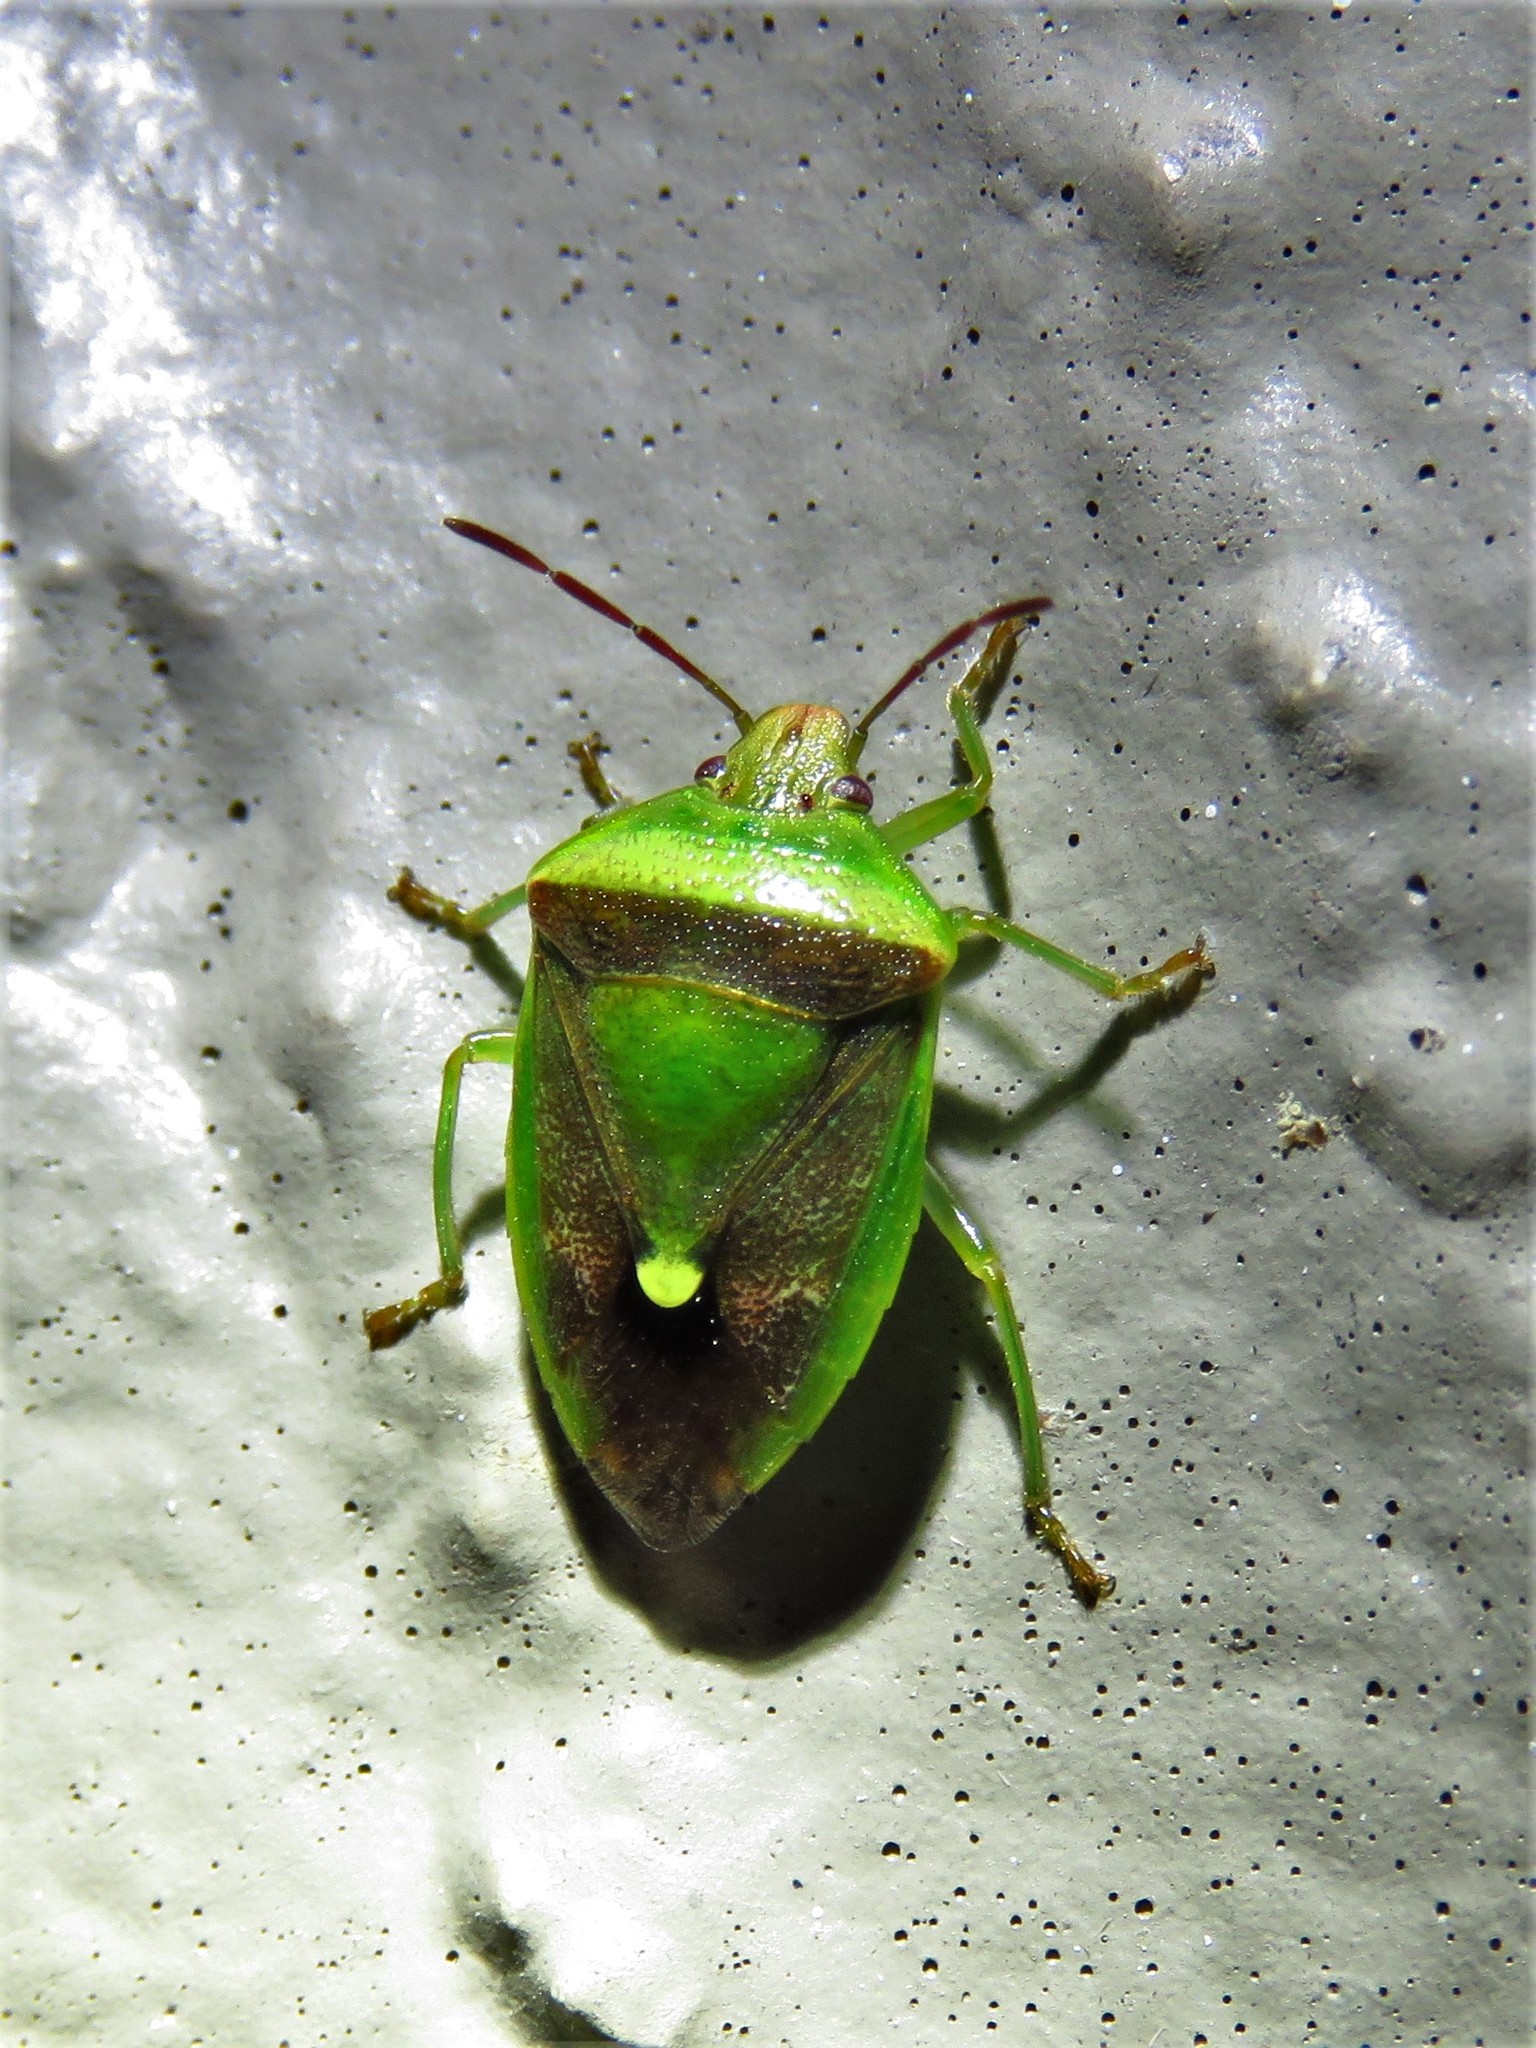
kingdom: Animalia
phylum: Arthropoda
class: Insecta
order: Hemiptera
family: Pentatomidae
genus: Banasa
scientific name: Banasa dimidiata
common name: Green burgundy stink bug
